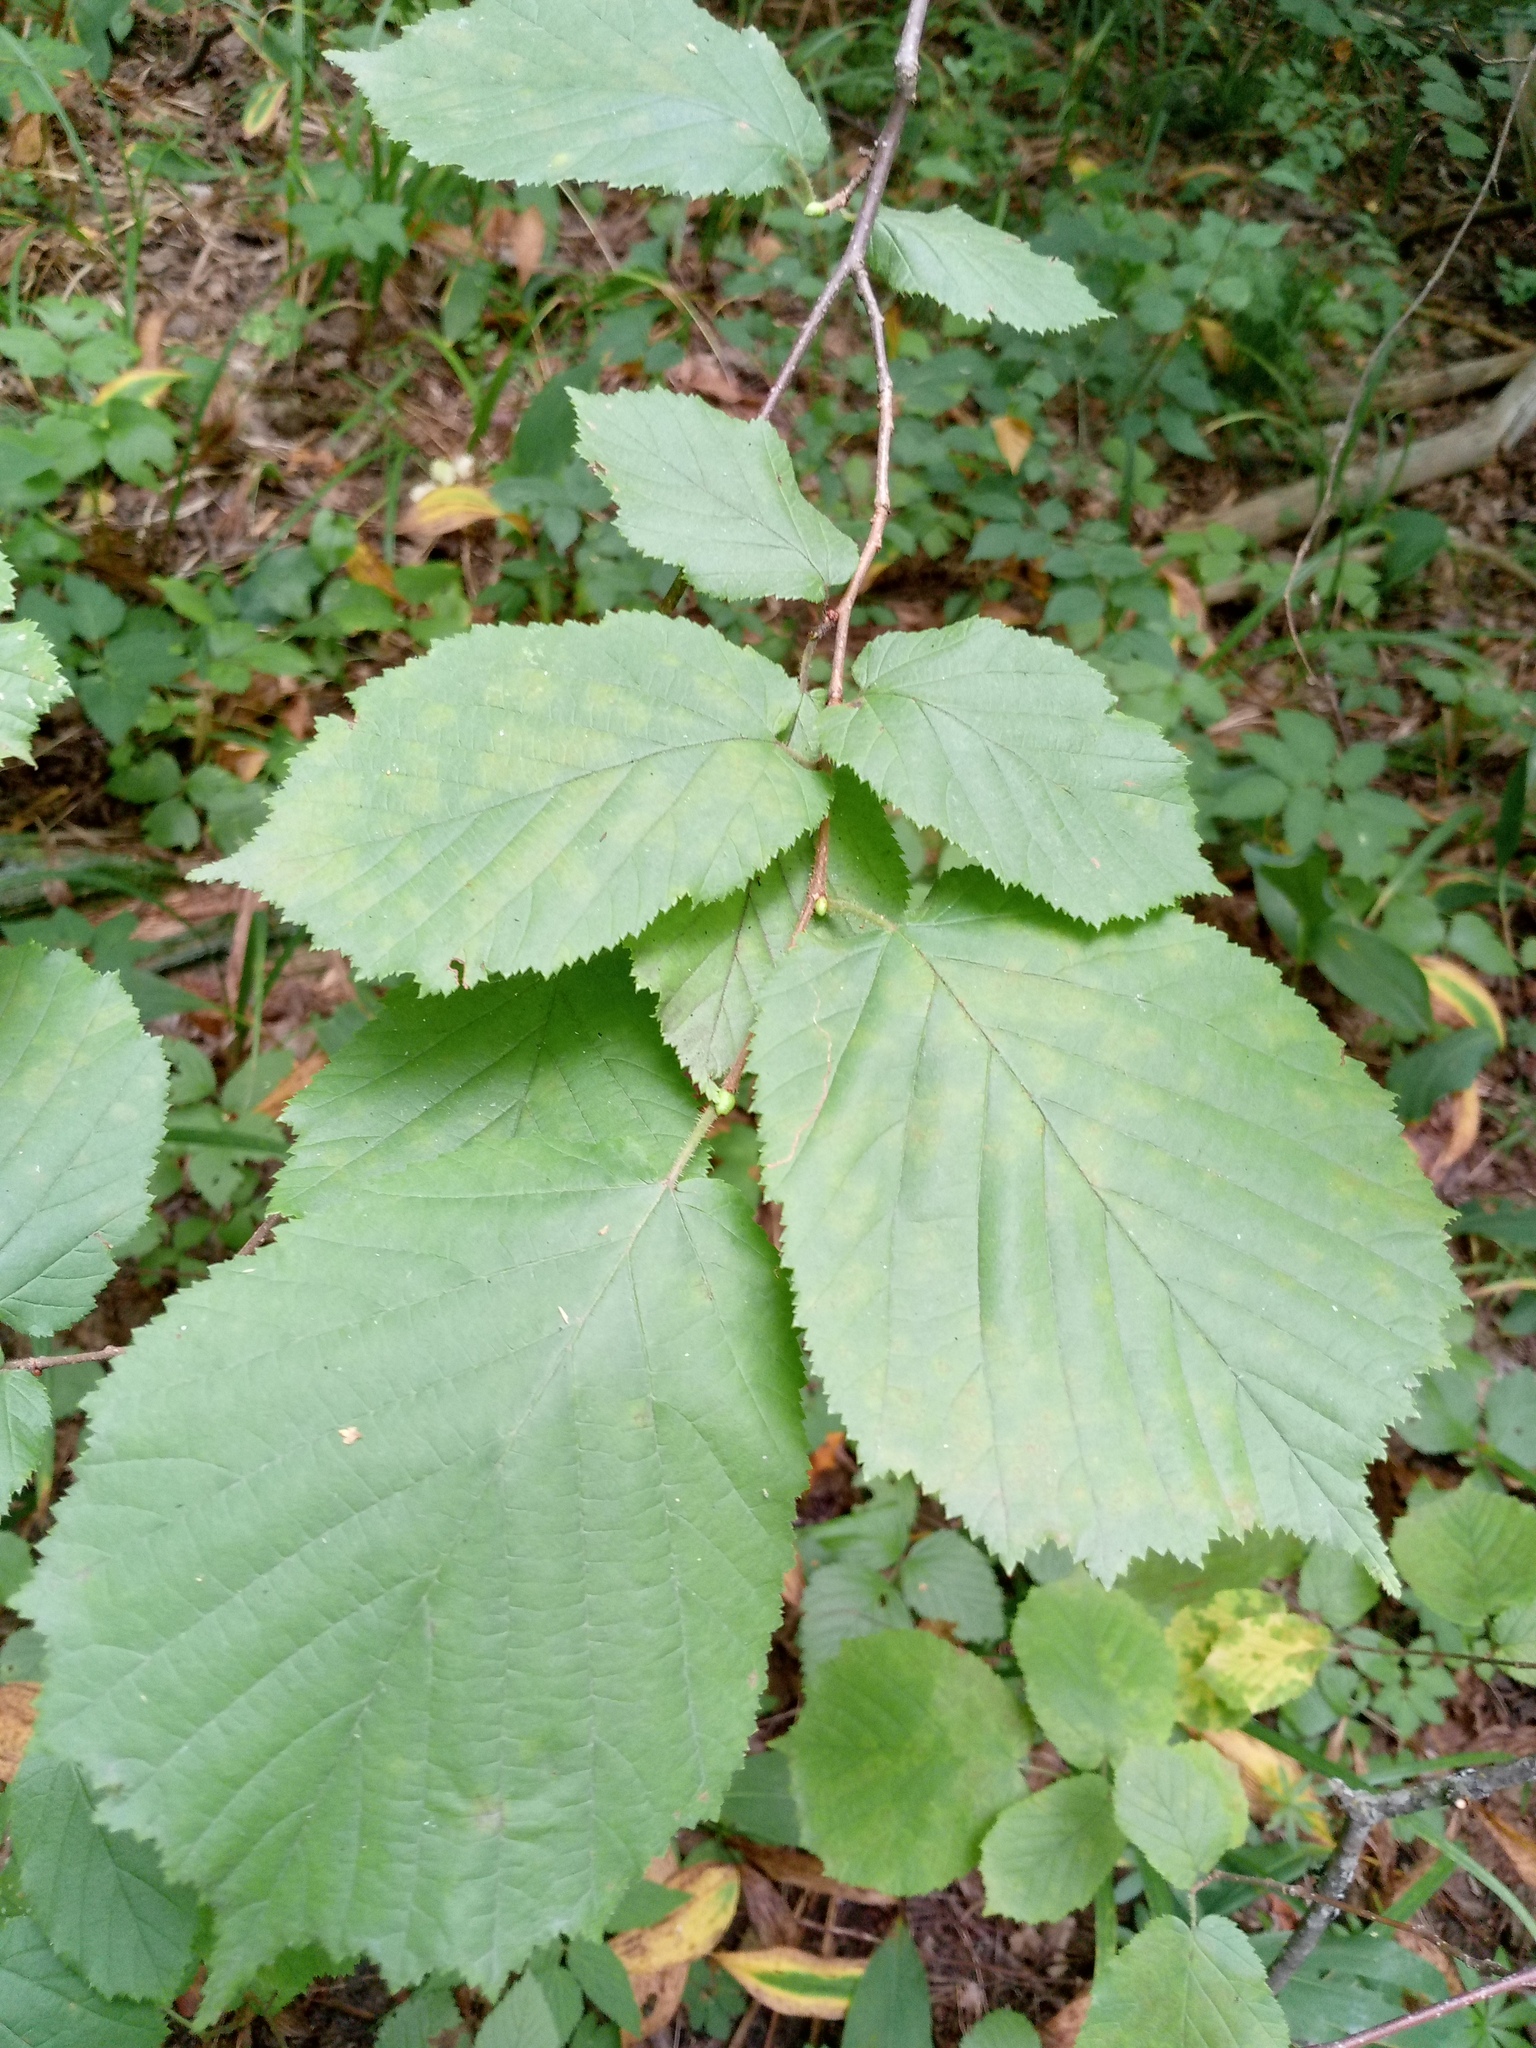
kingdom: Plantae
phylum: Tracheophyta
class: Magnoliopsida
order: Fagales
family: Betulaceae
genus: Corylus
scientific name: Corylus avellana
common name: European hazel
